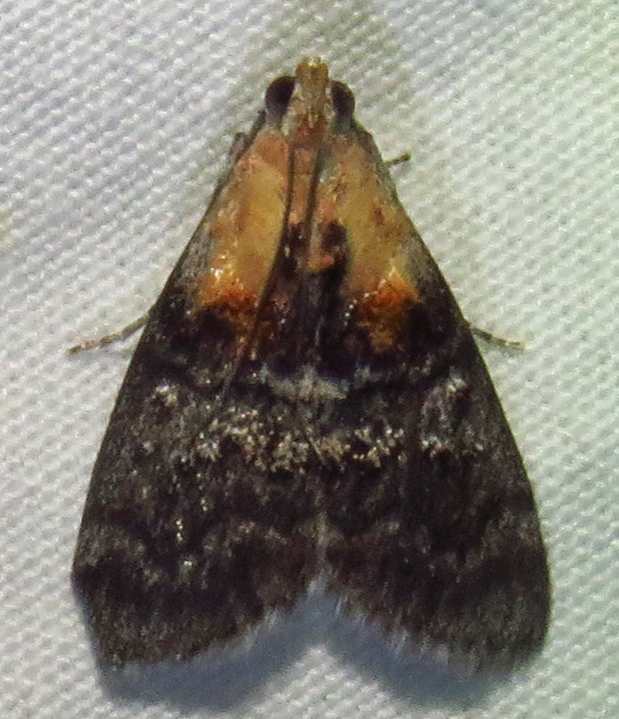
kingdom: Animalia
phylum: Arthropoda
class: Insecta
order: Lepidoptera
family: Pyralidae
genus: Pococera
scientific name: Pococera expandens
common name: Striped oak webworm moth
